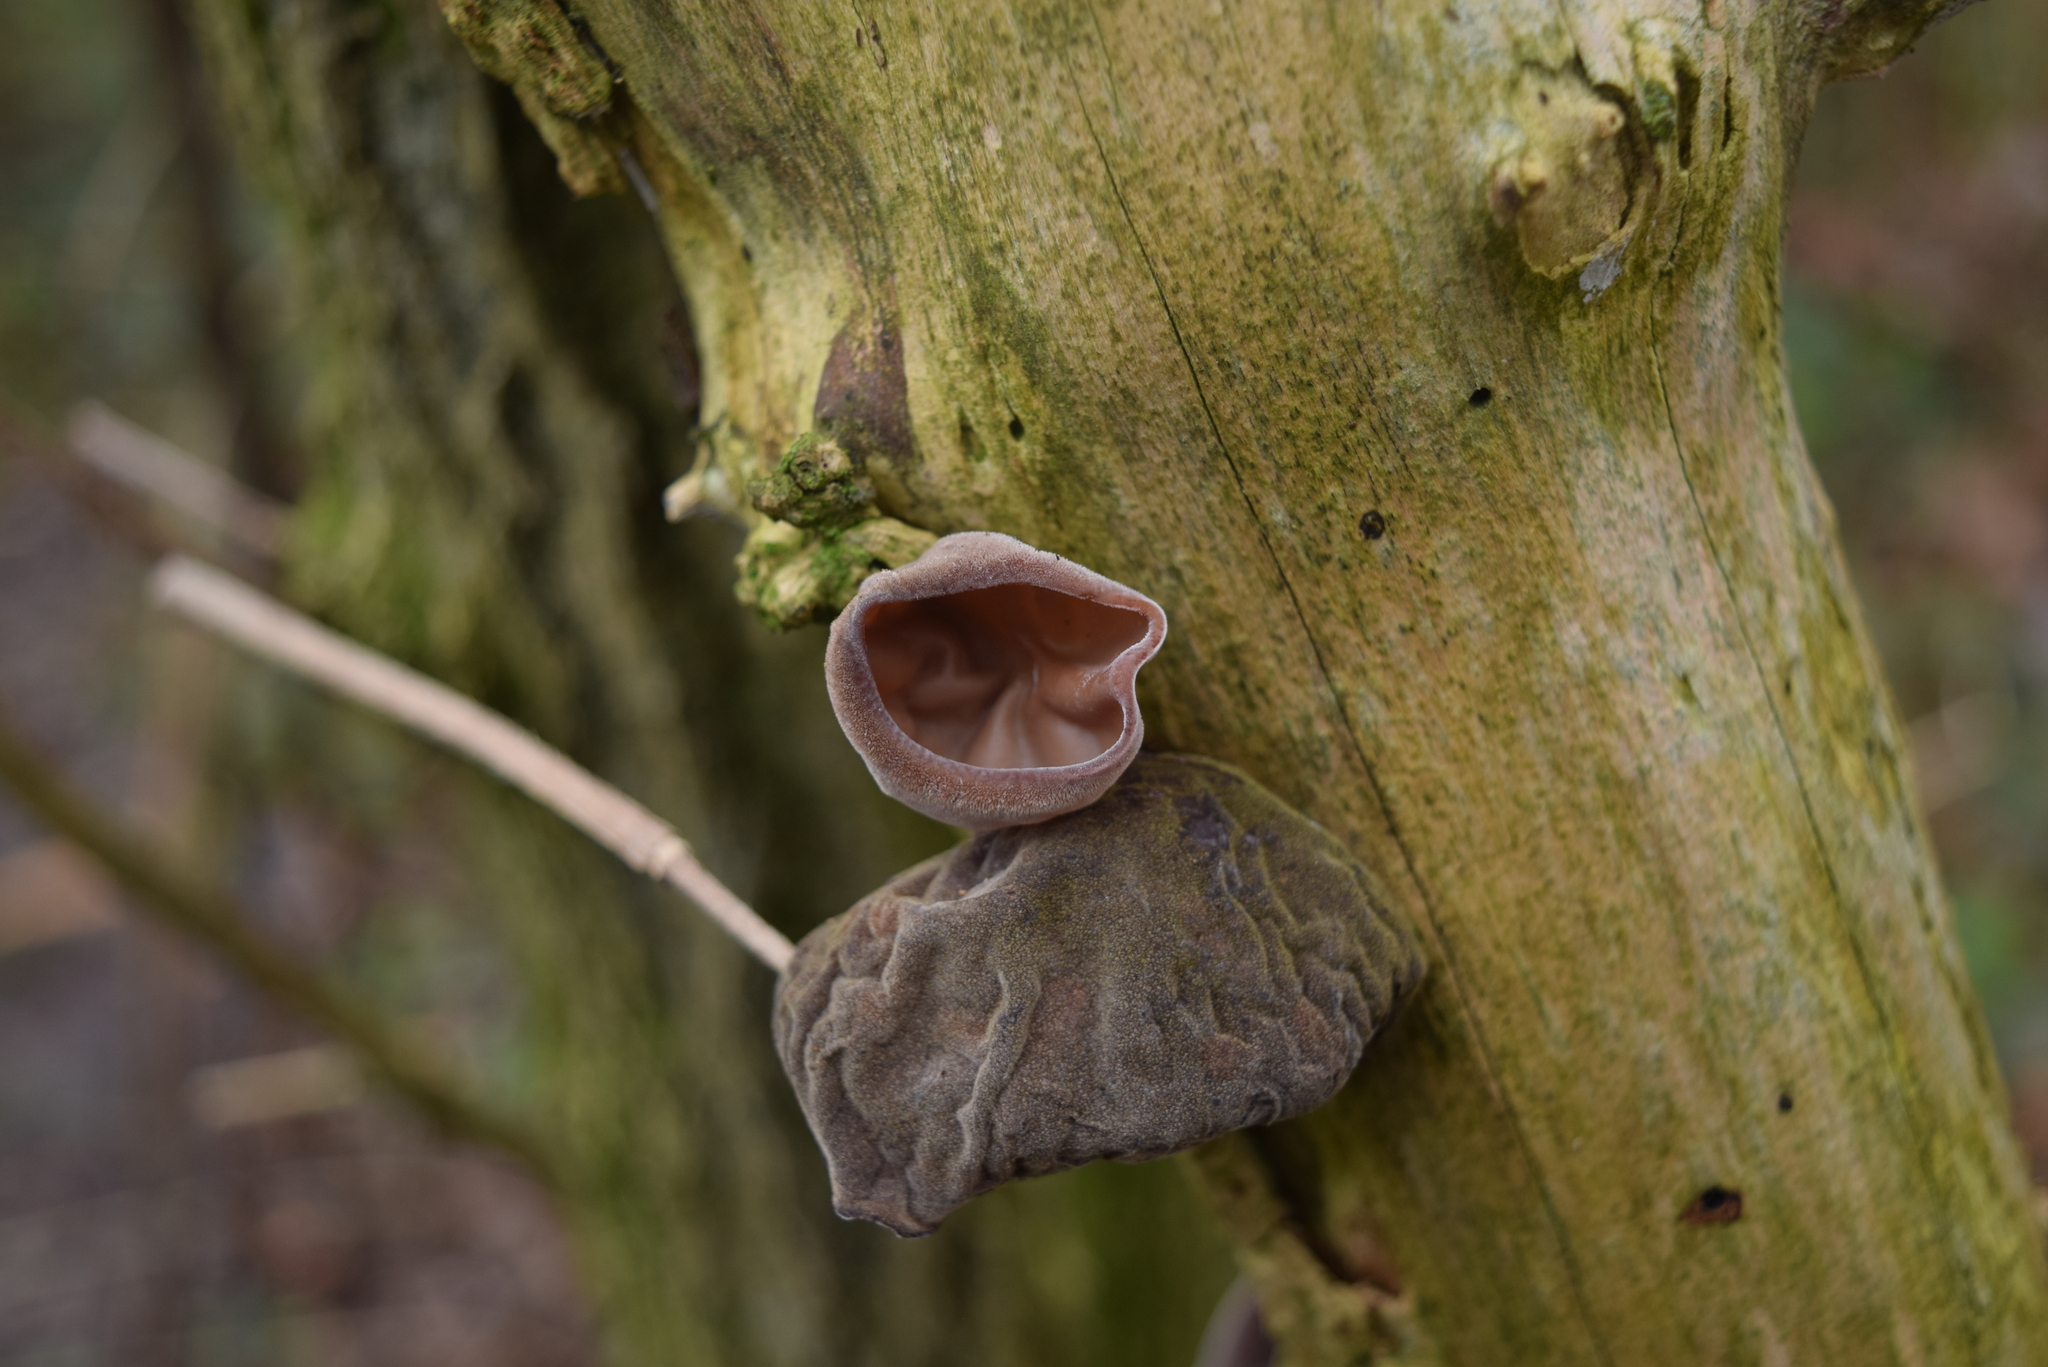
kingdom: Fungi
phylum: Basidiomycota
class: Agaricomycetes
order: Auriculariales
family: Auriculariaceae
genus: Auricularia
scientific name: Auricularia auricula-judae
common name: Jelly ear
